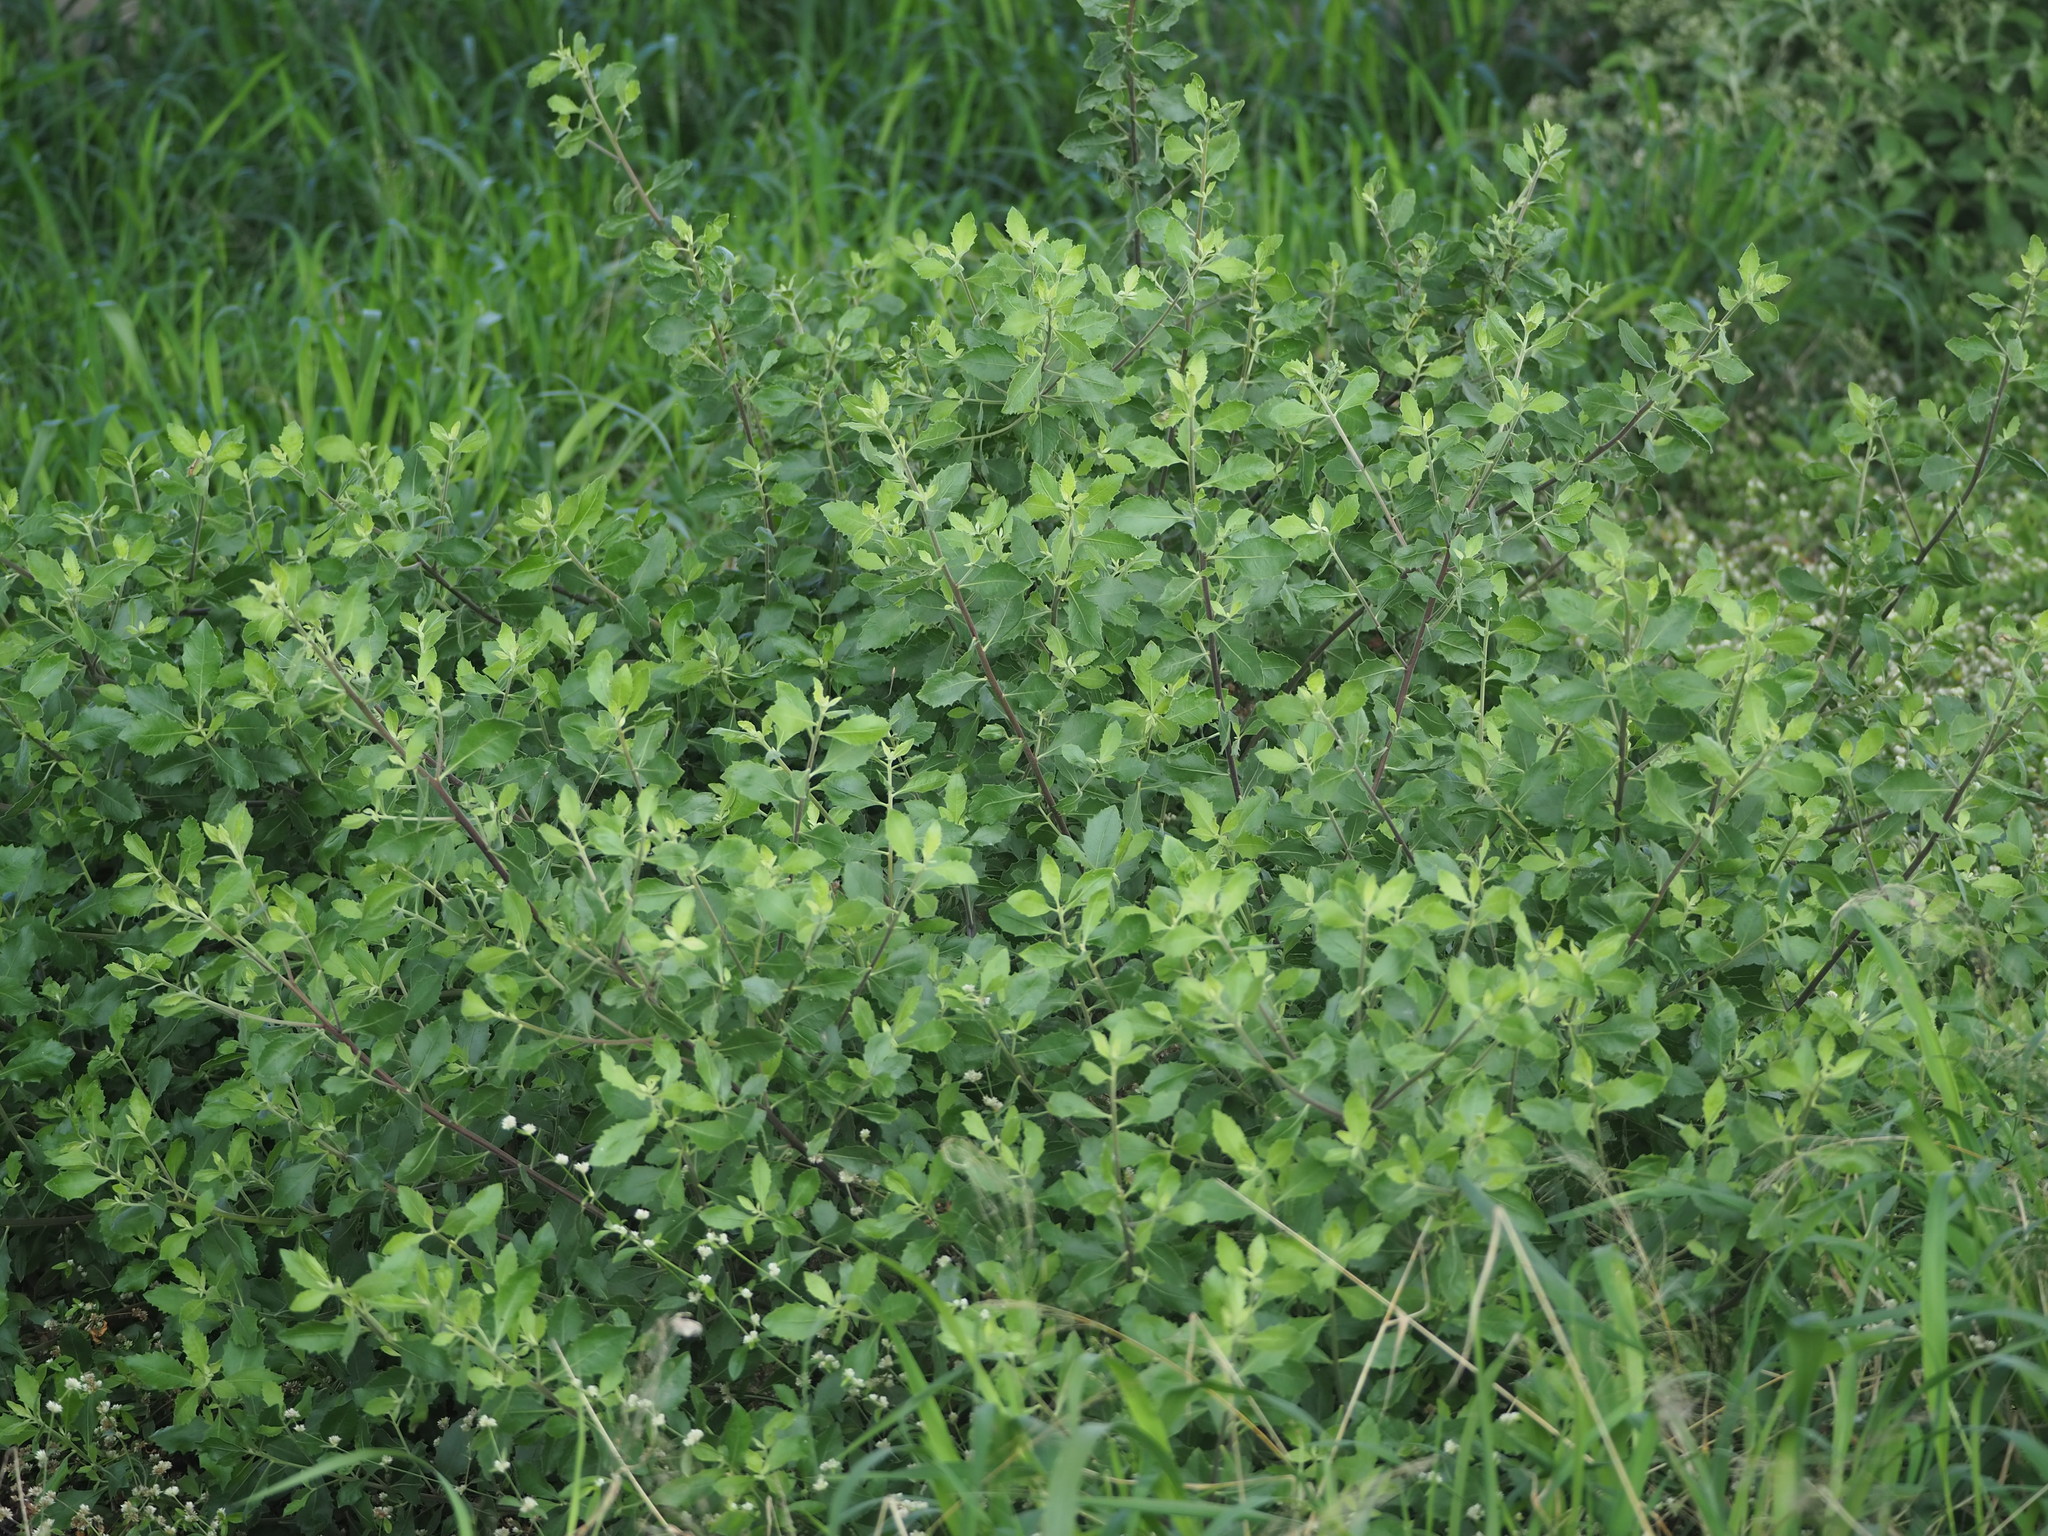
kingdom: Plantae
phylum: Tracheophyta
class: Magnoliopsida
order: Asterales
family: Asteraceae
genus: Pluchea
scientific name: Pluchea indica
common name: Indian fleabane
